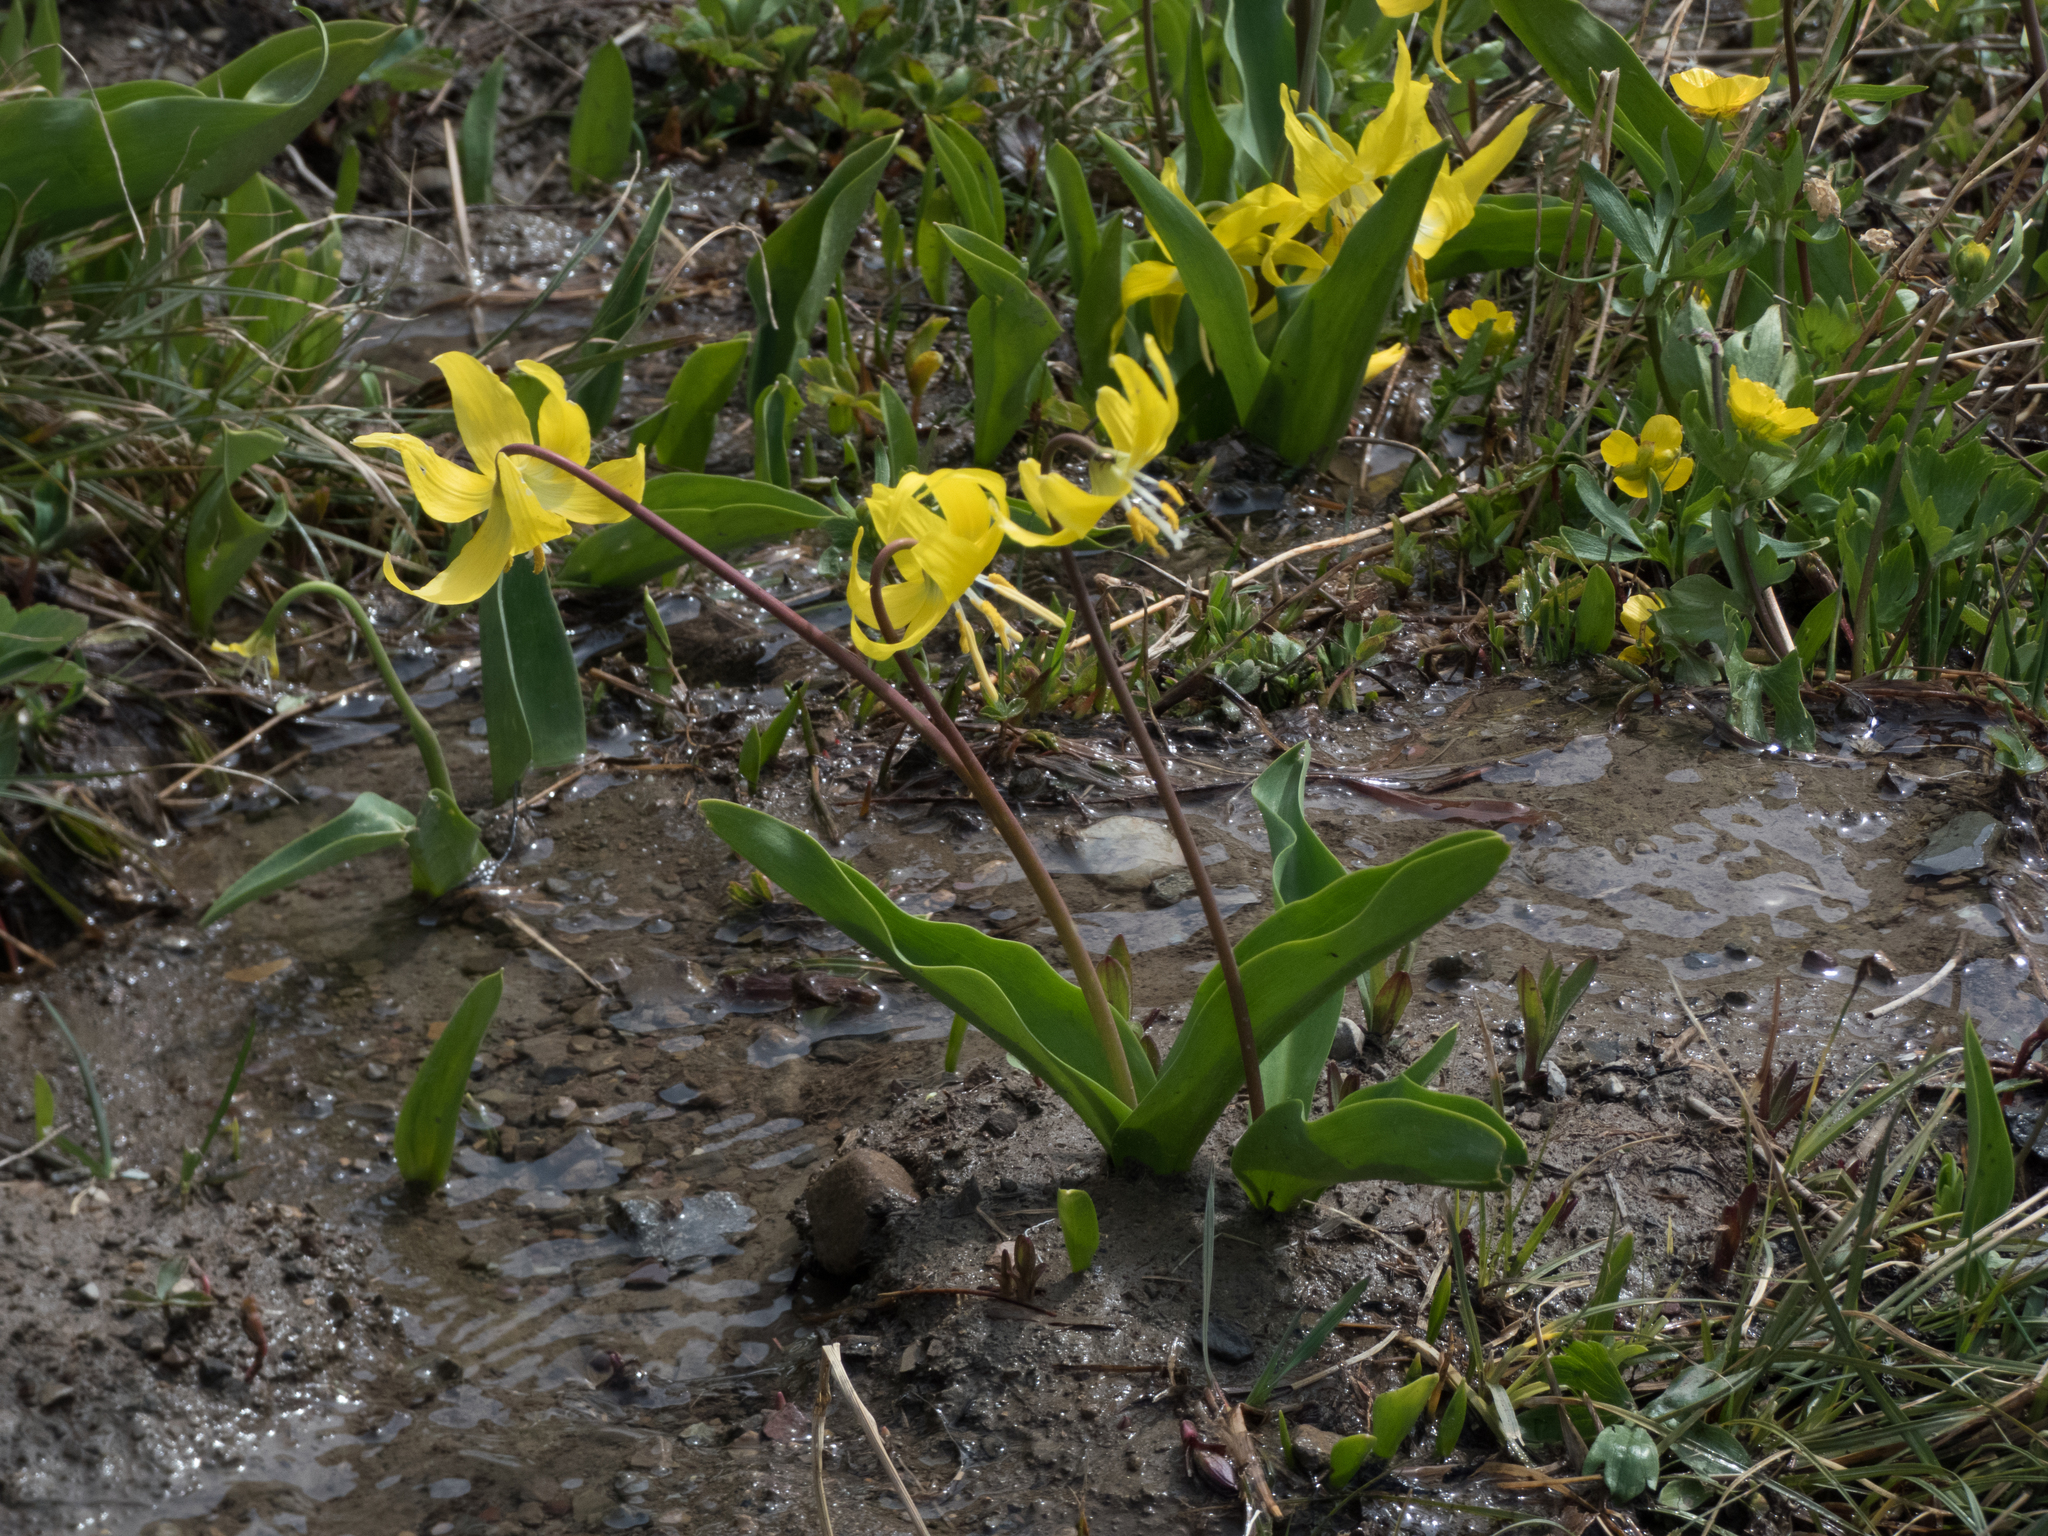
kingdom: Plantae
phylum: Tracheophyta
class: Liliopsida
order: Liliales
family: Liliaceae
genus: Erythronium
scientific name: Erythronium grandiflorum
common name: Avalanche-lily
